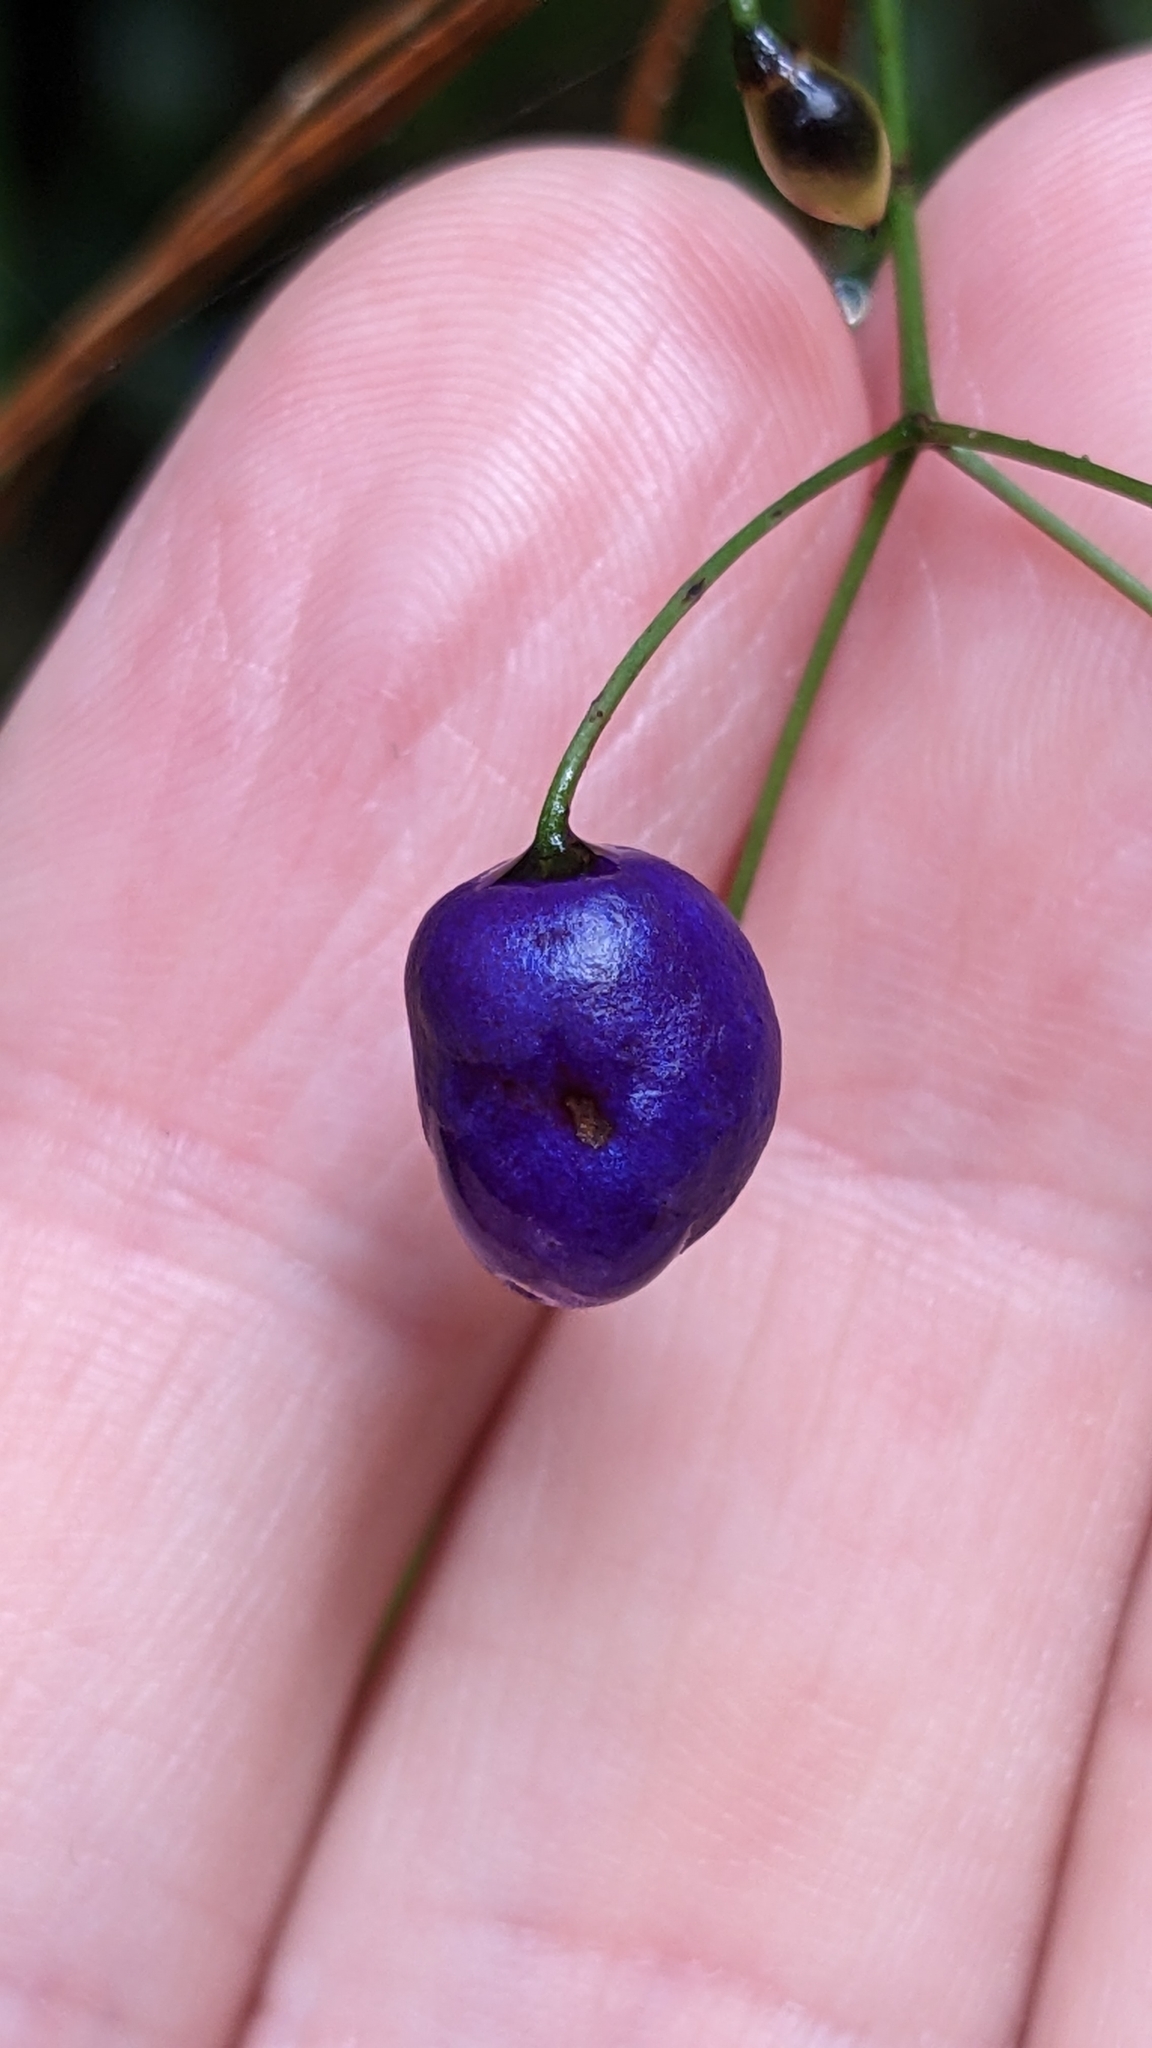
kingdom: Plantae
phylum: Tracheophyta
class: Liliopsida
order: Asparagales
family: Asphodelaceae
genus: Dianella
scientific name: Dianella nigra
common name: New zealand-blueberry
